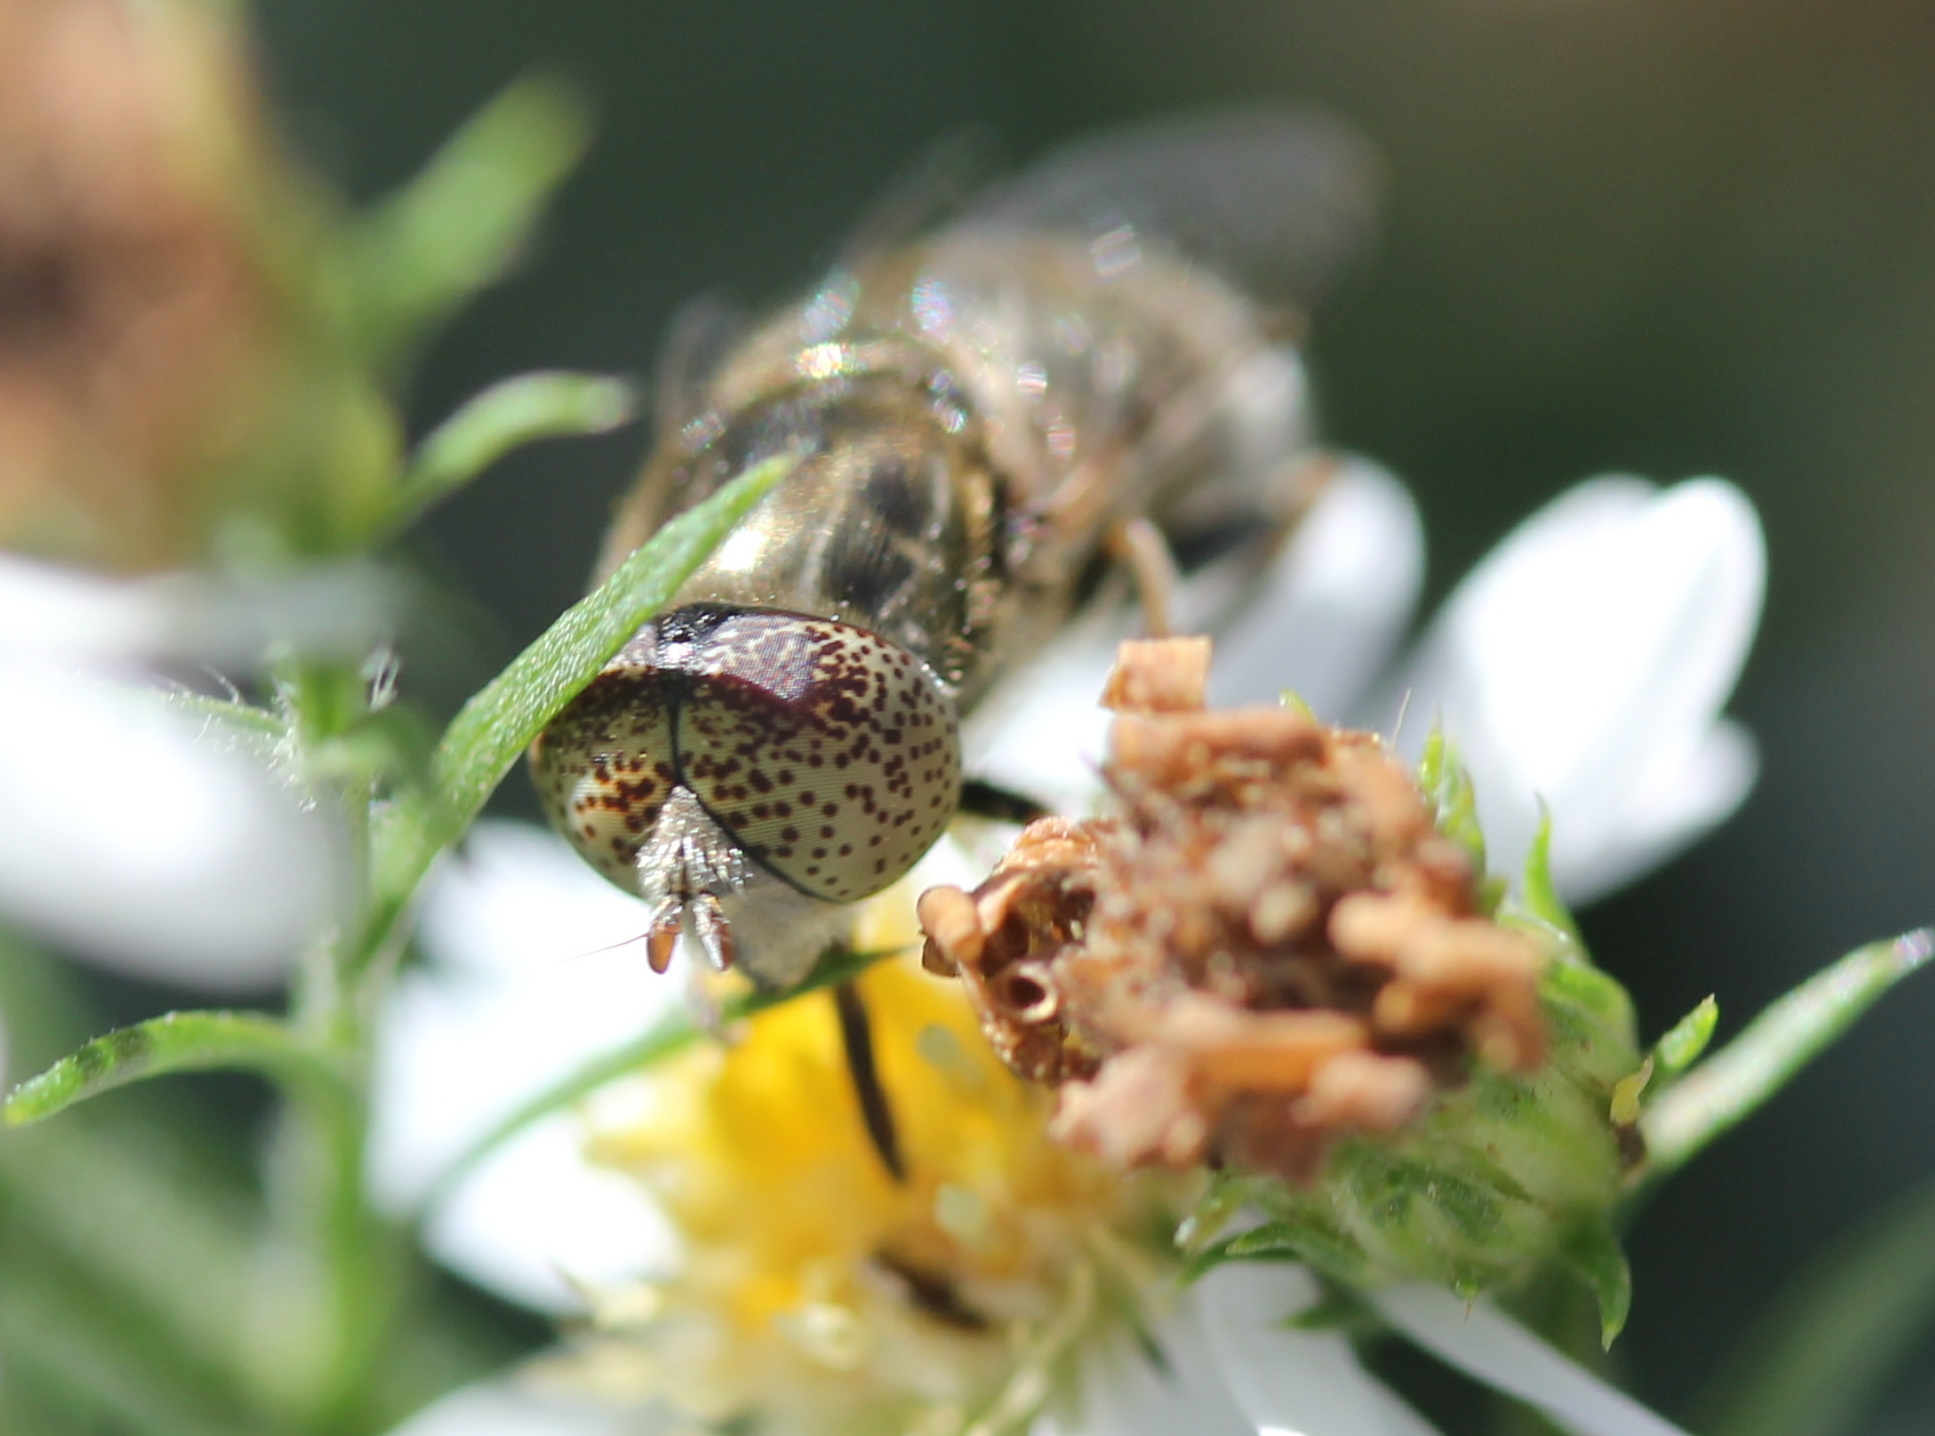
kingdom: Animalia
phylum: Arthropoda
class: Insecta
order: Diptera
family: Syrphidae
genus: Eristalinus
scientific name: Eristalinus aeneus
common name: Syrphid fly
